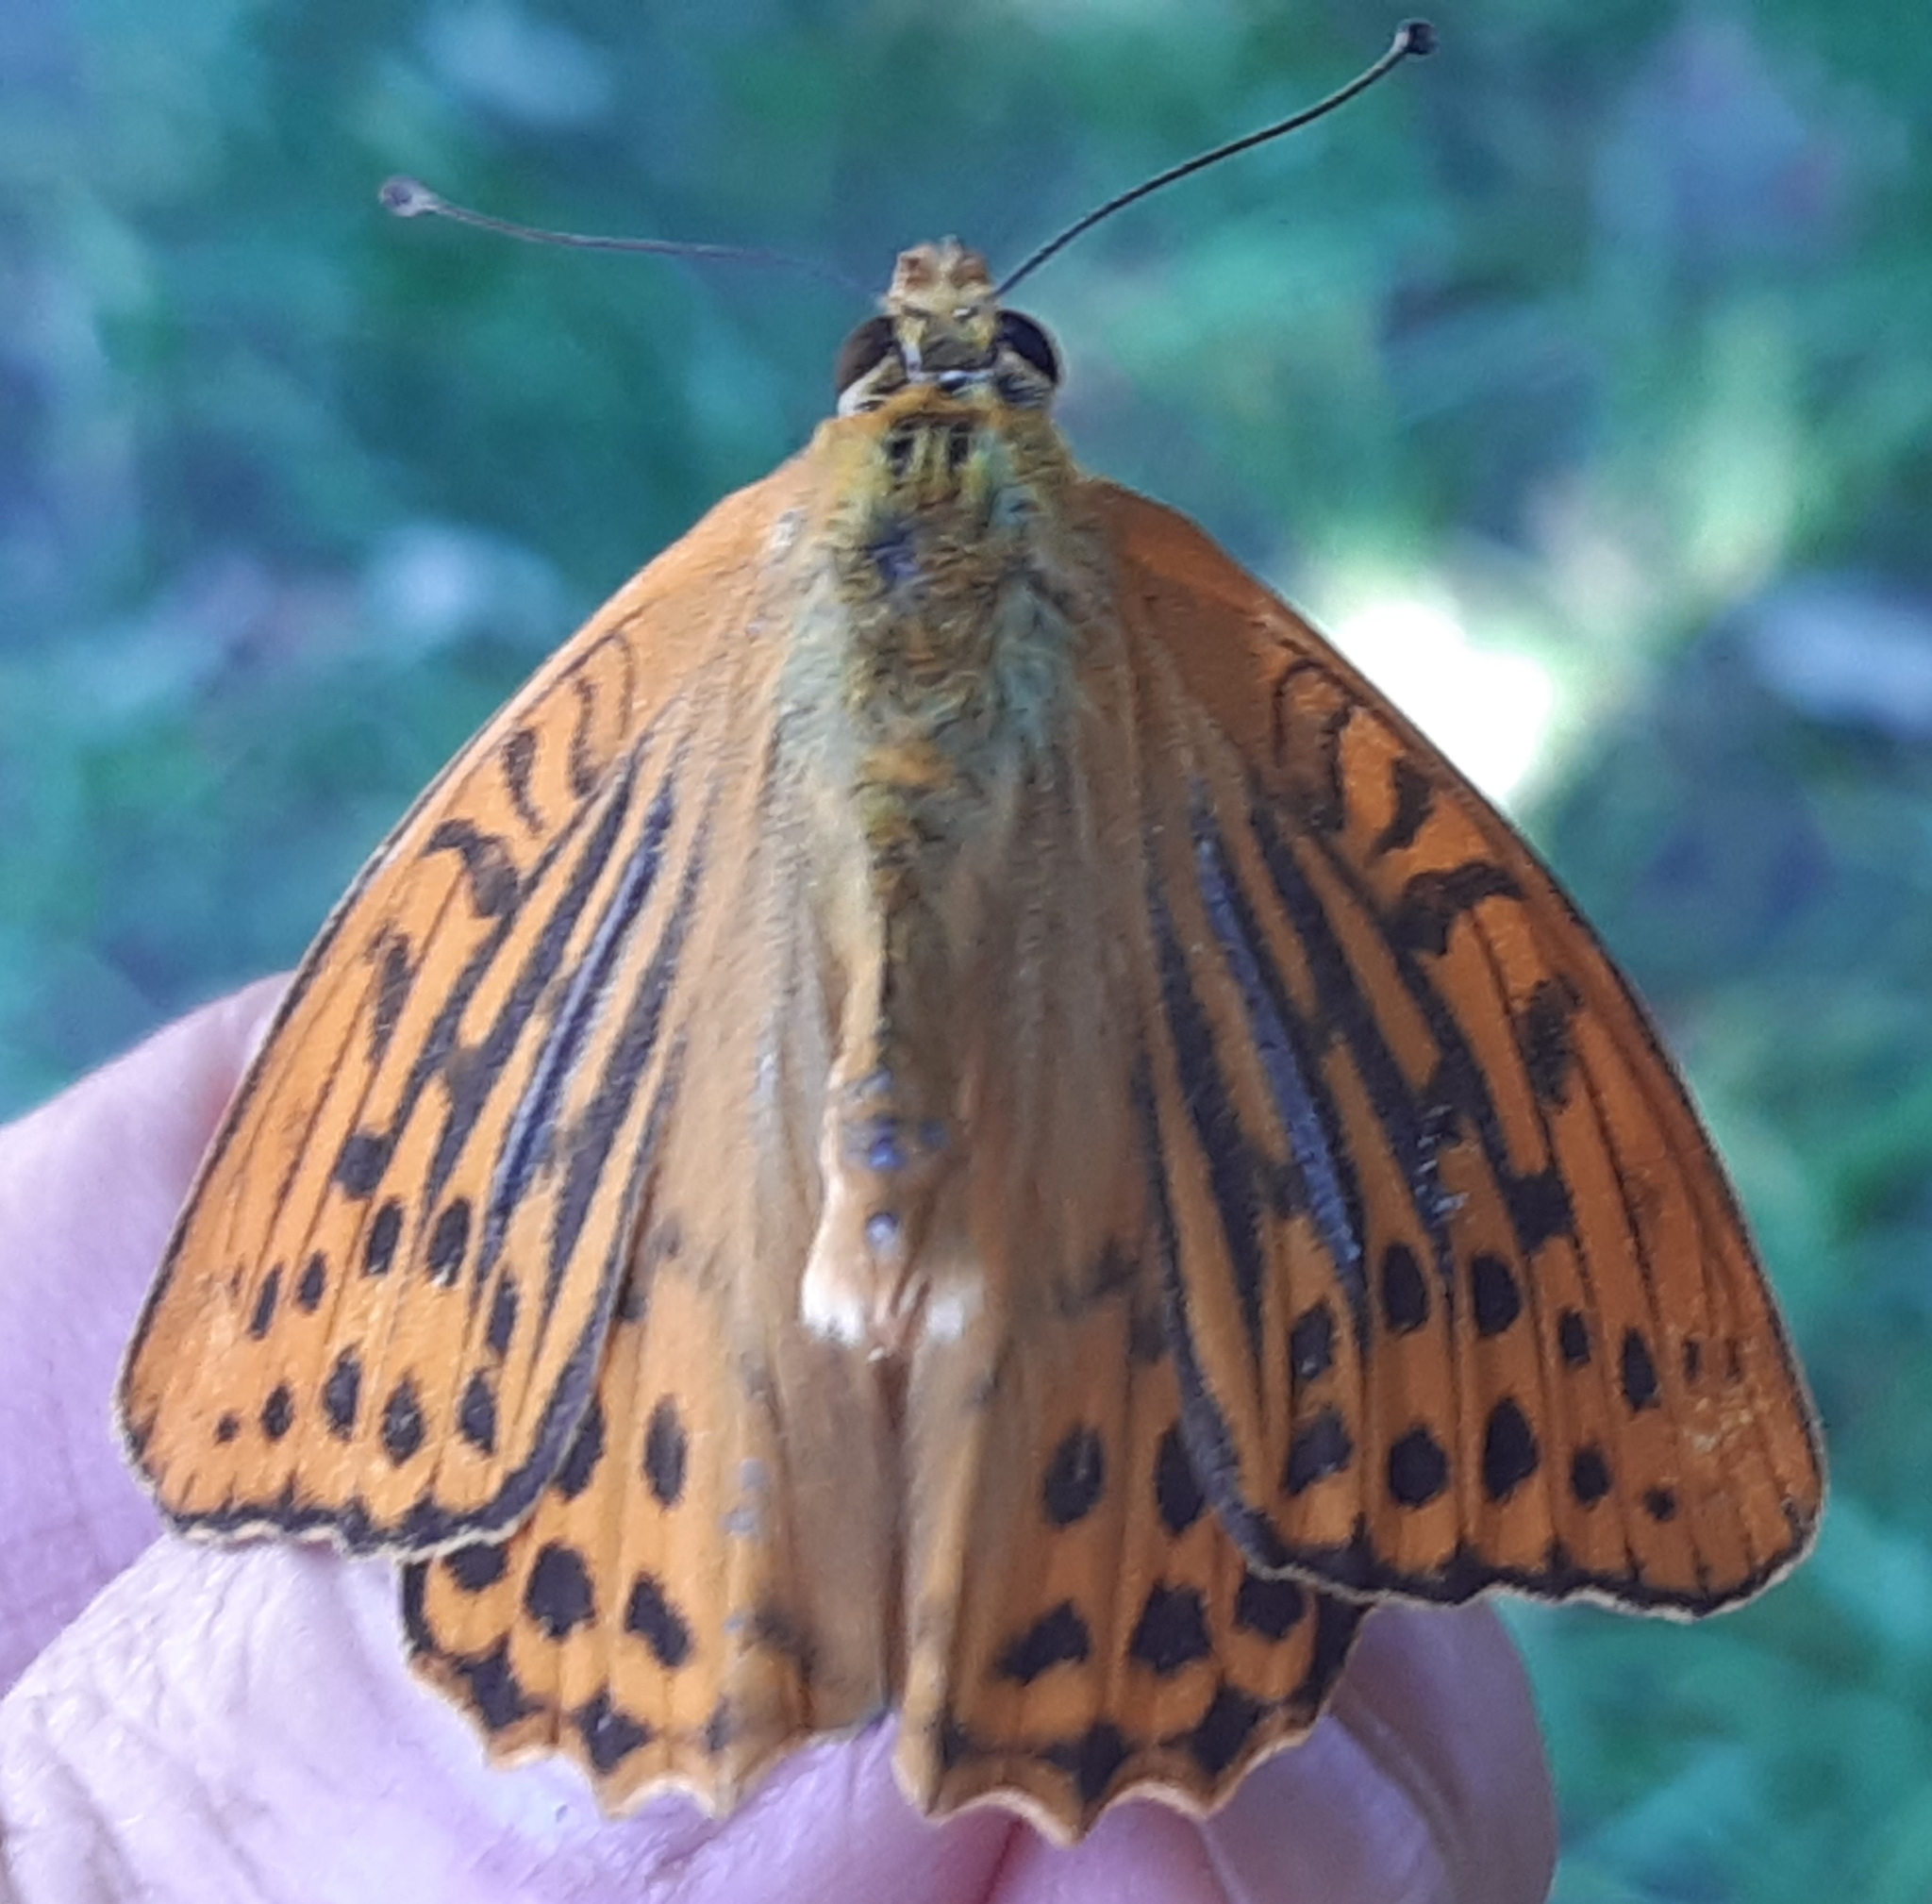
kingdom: Animalia
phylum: Arthropoda
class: Insecta
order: Lepidoptera
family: Nymphalidae
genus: Argynnis
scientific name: Argynnis paphia
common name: Silver-washed fritillary
